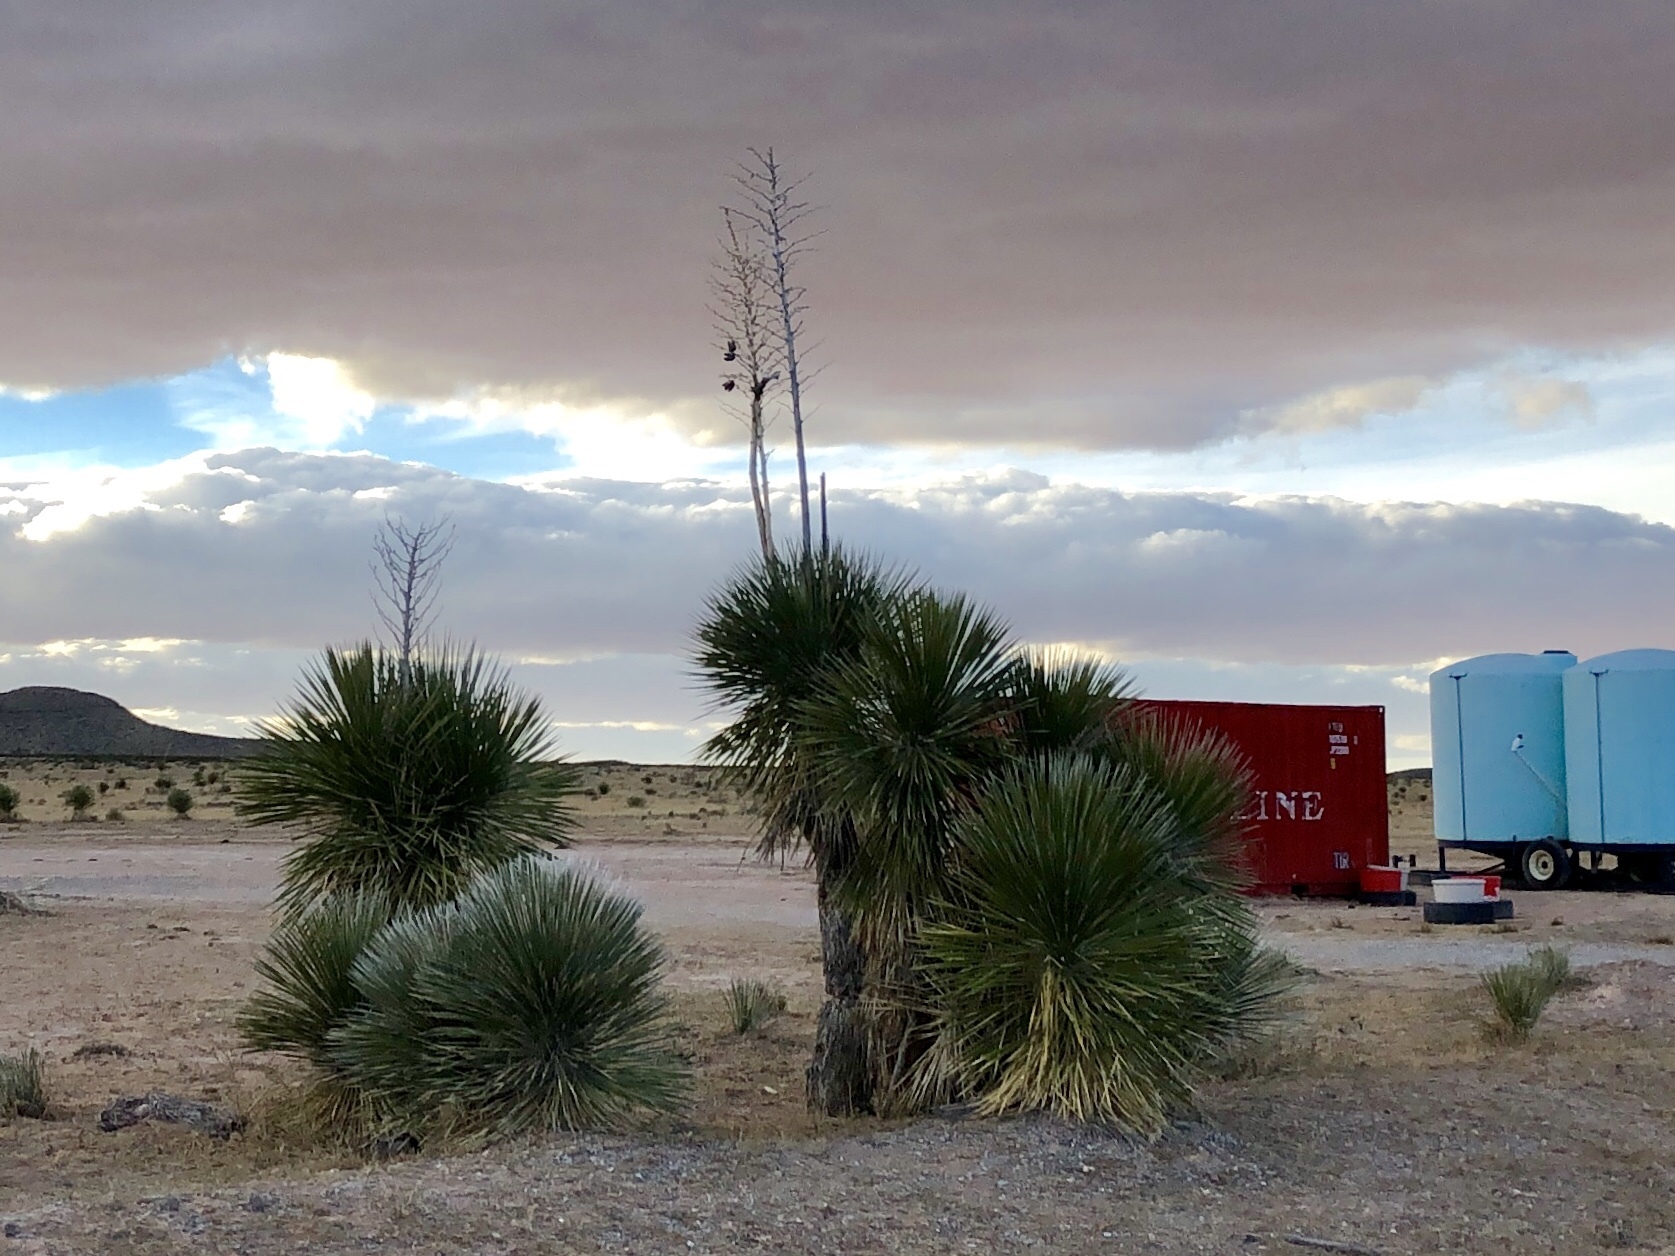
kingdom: Plantae
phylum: Tracheophyta
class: Liliopsida
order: Asparagales
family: Asparagaceae
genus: Yucca
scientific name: Yucca elata
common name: Palmella
